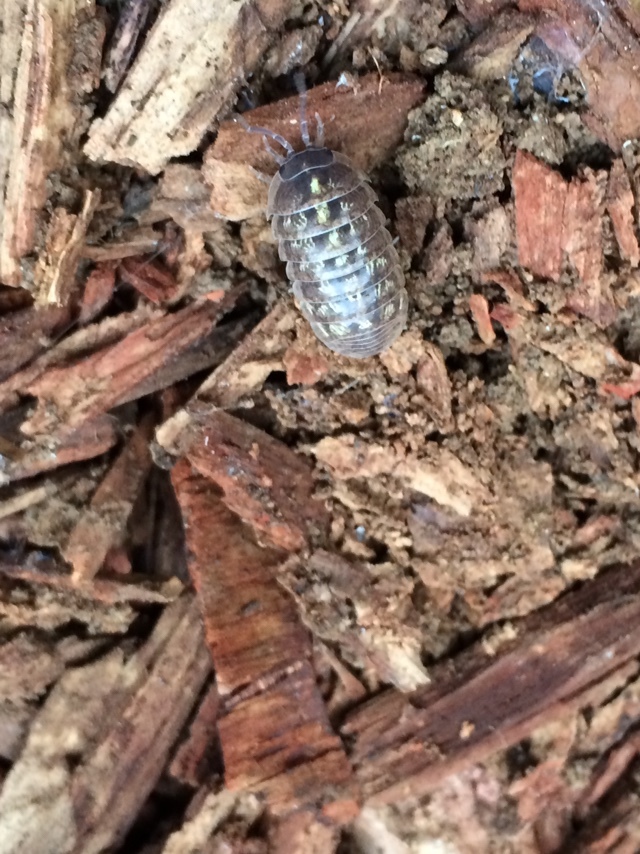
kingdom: Animalia
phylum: Arthropoda
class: Malacostraca
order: Isopoda
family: Armadillidiidae
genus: Armadillidium
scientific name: Armadillidium vulgare
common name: Common pill woodlouse
